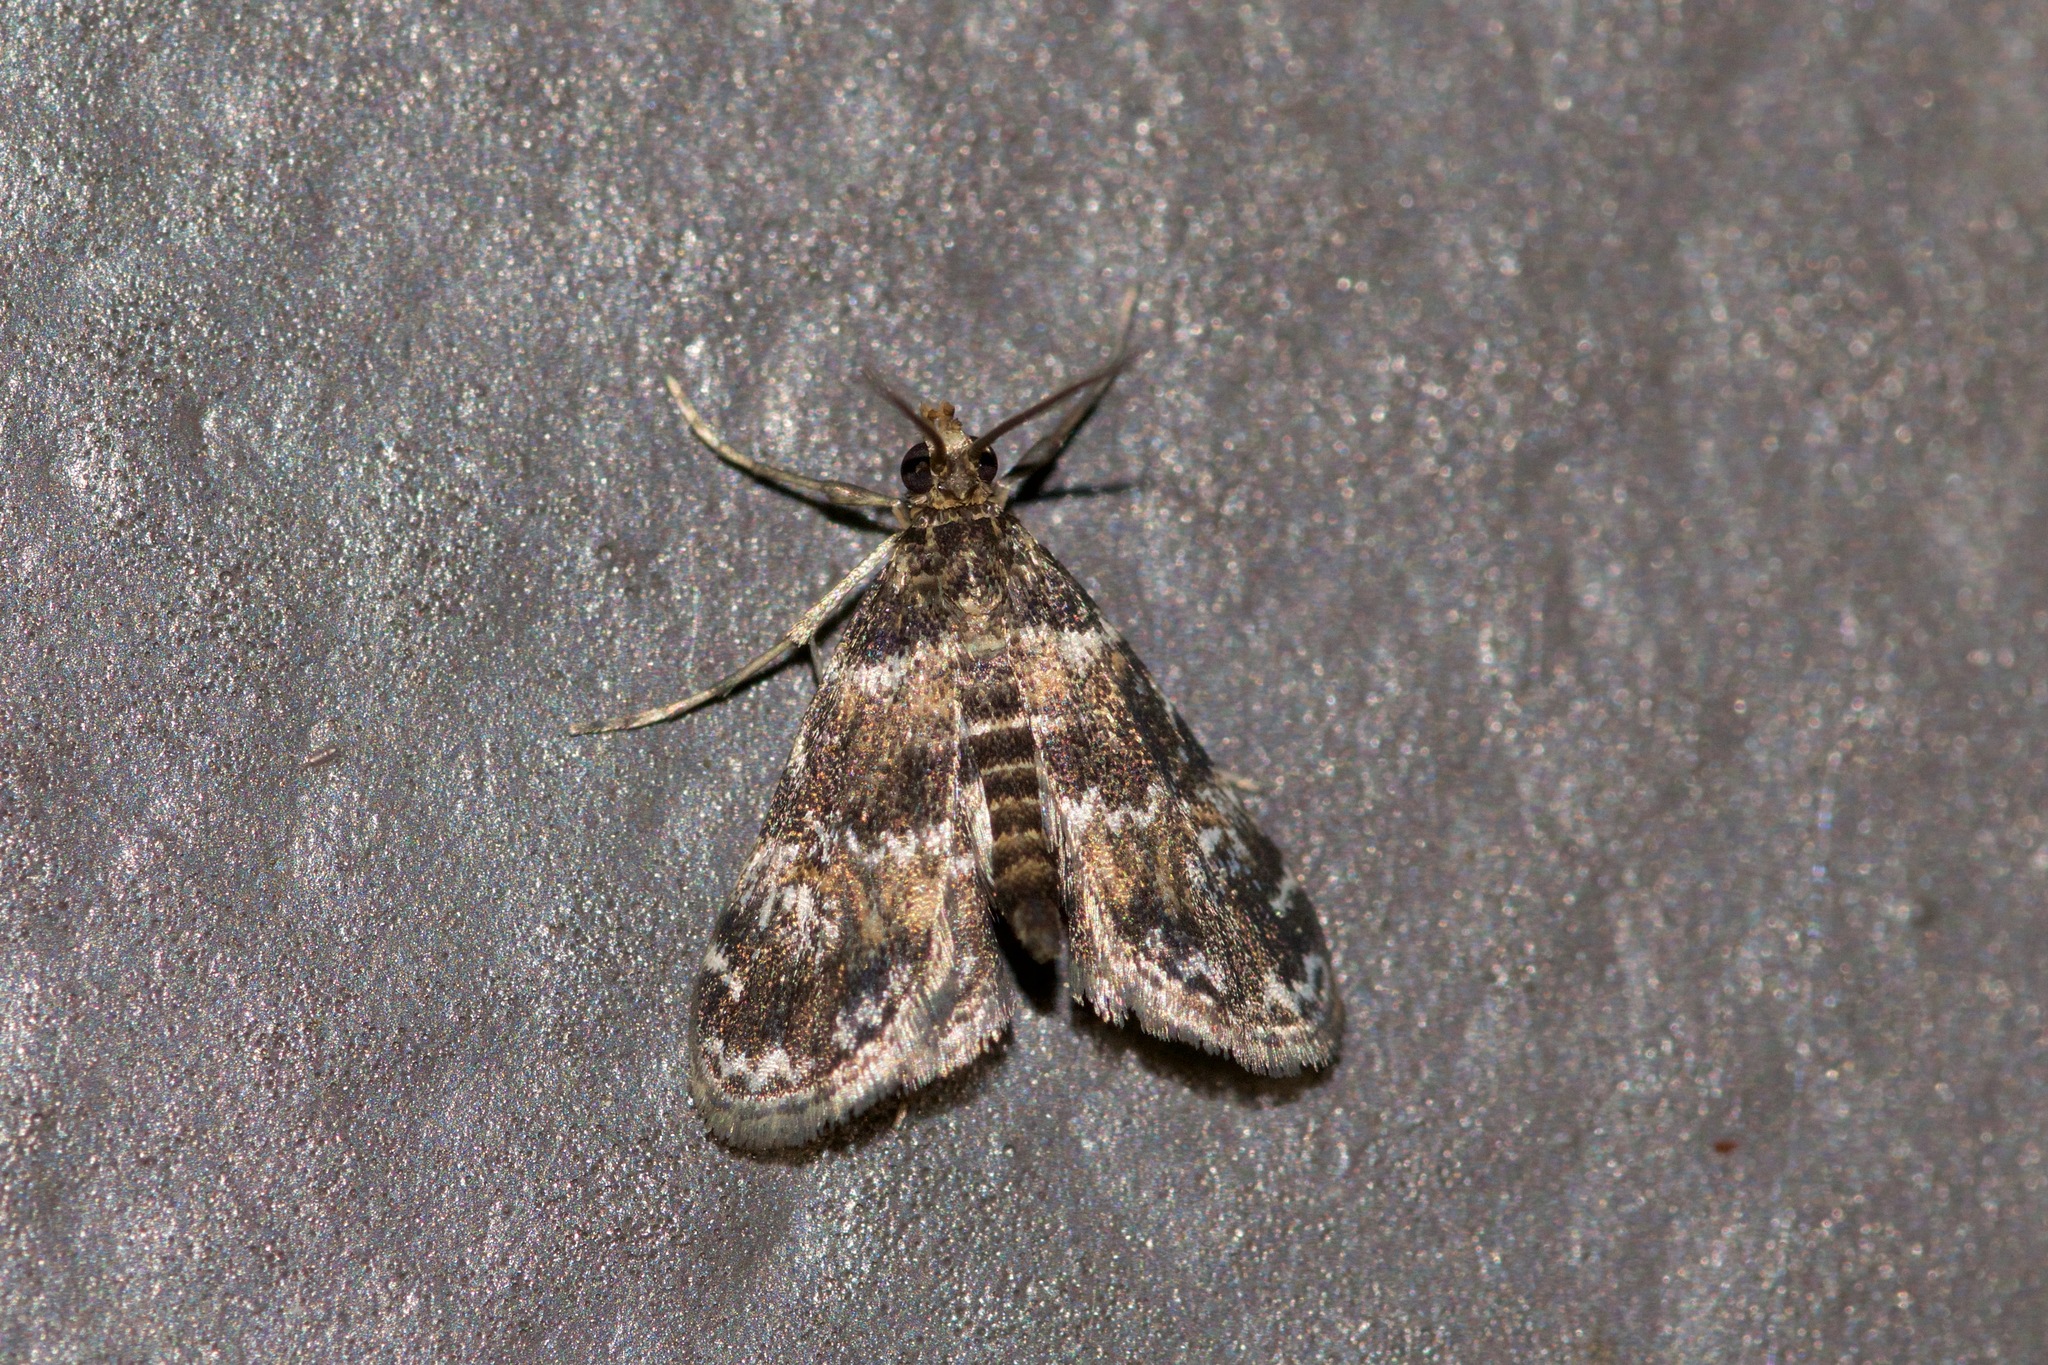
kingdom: Animalia
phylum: Arthropoda
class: Insecta
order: Lepidoptera
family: Crambidae
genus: Elophila
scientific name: Elophila obliteralis
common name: Waterlily leafcutter moth
